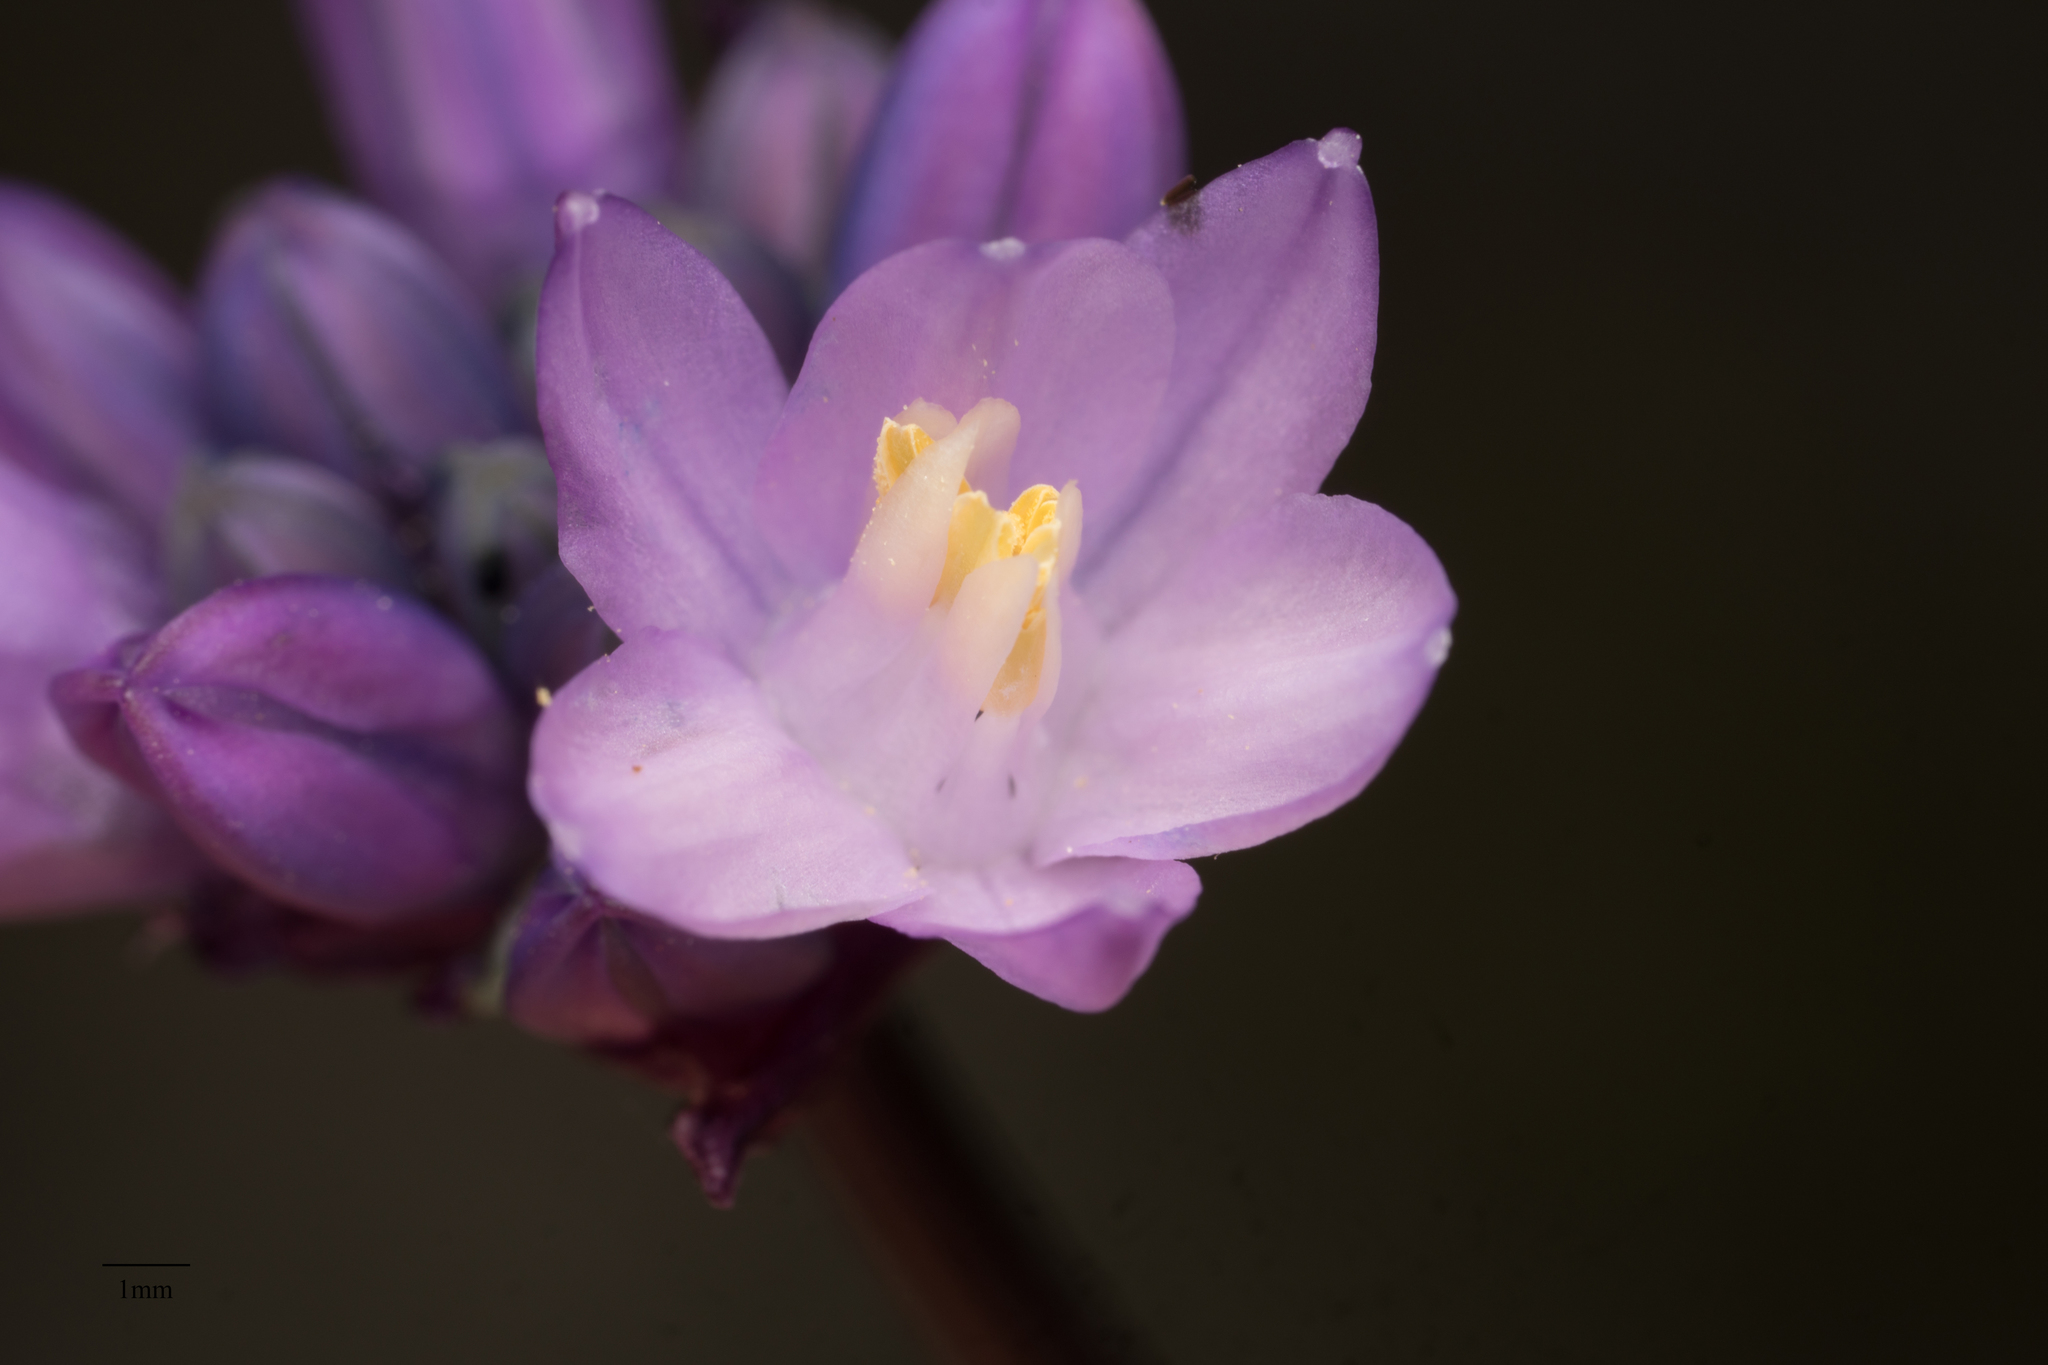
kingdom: Plantae
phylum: Tracheophyta
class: Liliopsida
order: Asparagales
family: Asparagaceae
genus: Dipterostemon
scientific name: Dipterostemon capitatus
